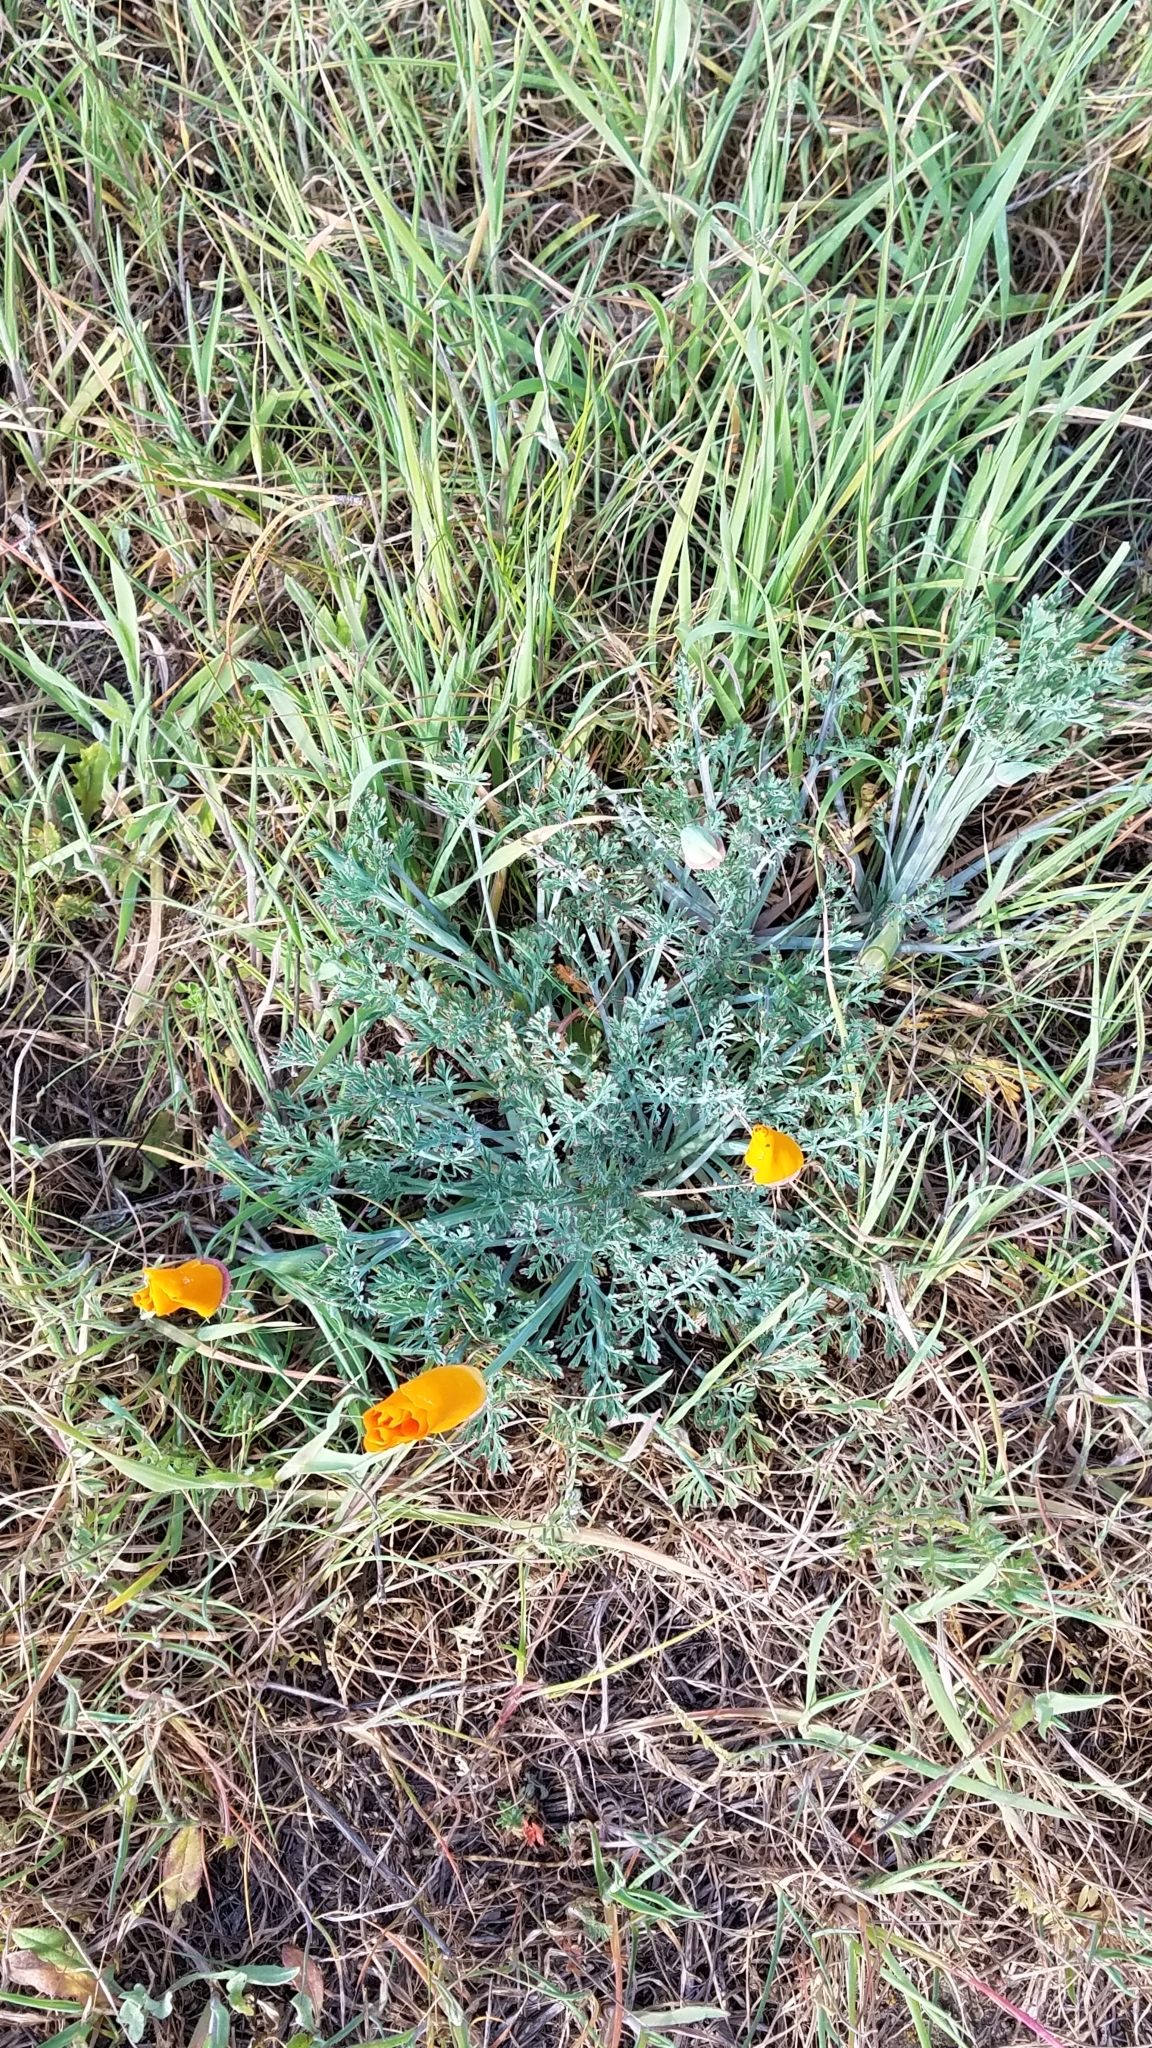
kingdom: Plantae
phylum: Tracheophyta
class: Magnoliopsida
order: Ranunculales
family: Papaveraceae
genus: Eschscholzia
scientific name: Eschscholzia californica
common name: California poppy
